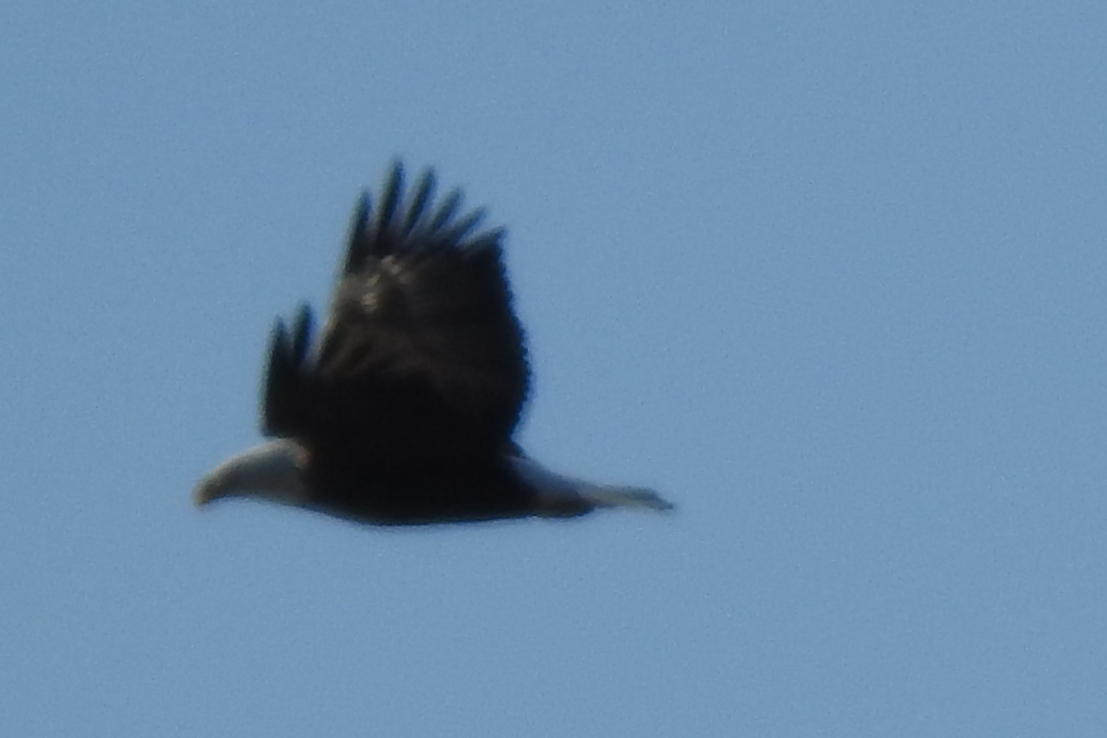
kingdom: Animalia
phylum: Chordata
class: Aves
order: Accipitriformes
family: Accipitridae
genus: Haliaeetus
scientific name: Haliaeetus leucocephalus
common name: Bald eagle
